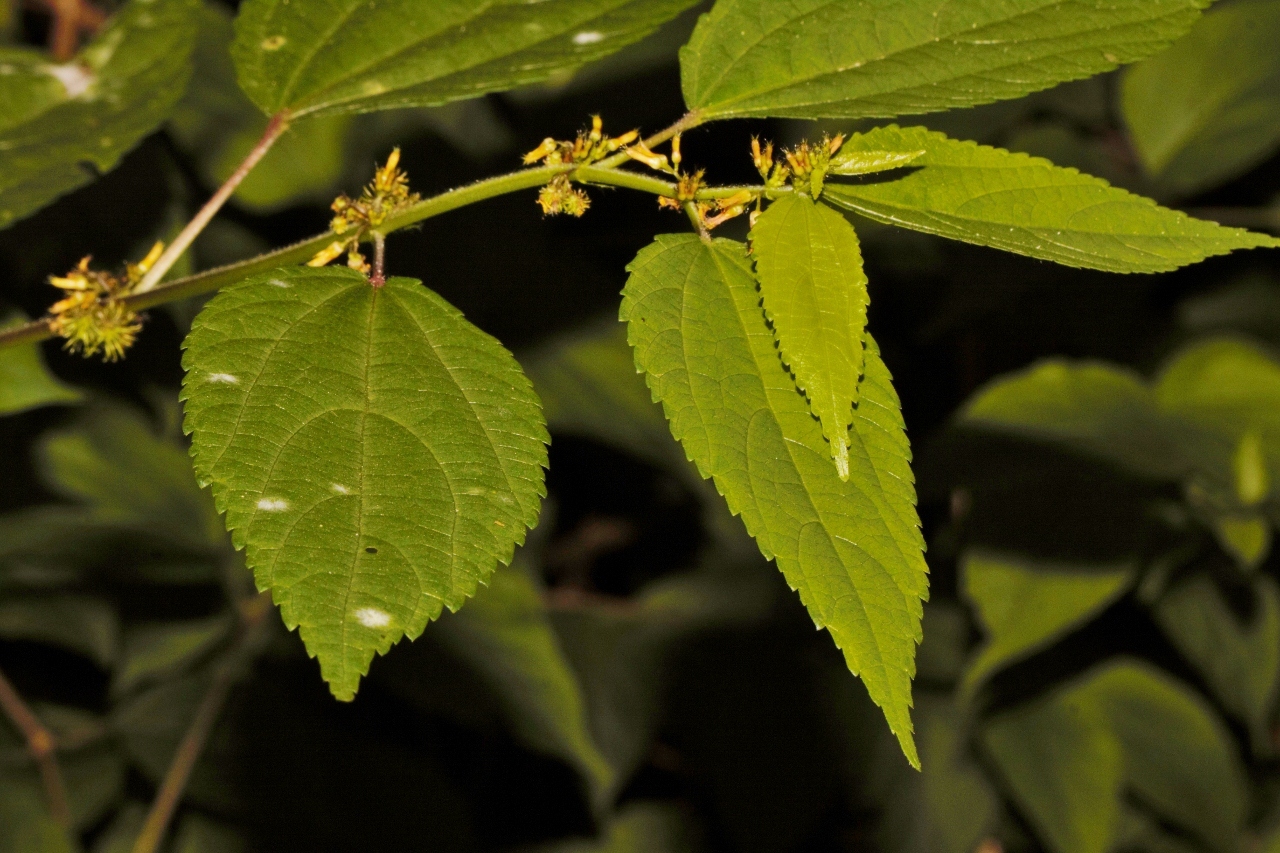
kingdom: Plantae
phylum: Tracheophyta
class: Magnoliopsida
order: Malvales
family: Malvaceae
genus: Triumfetta
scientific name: Triumfetta annua
